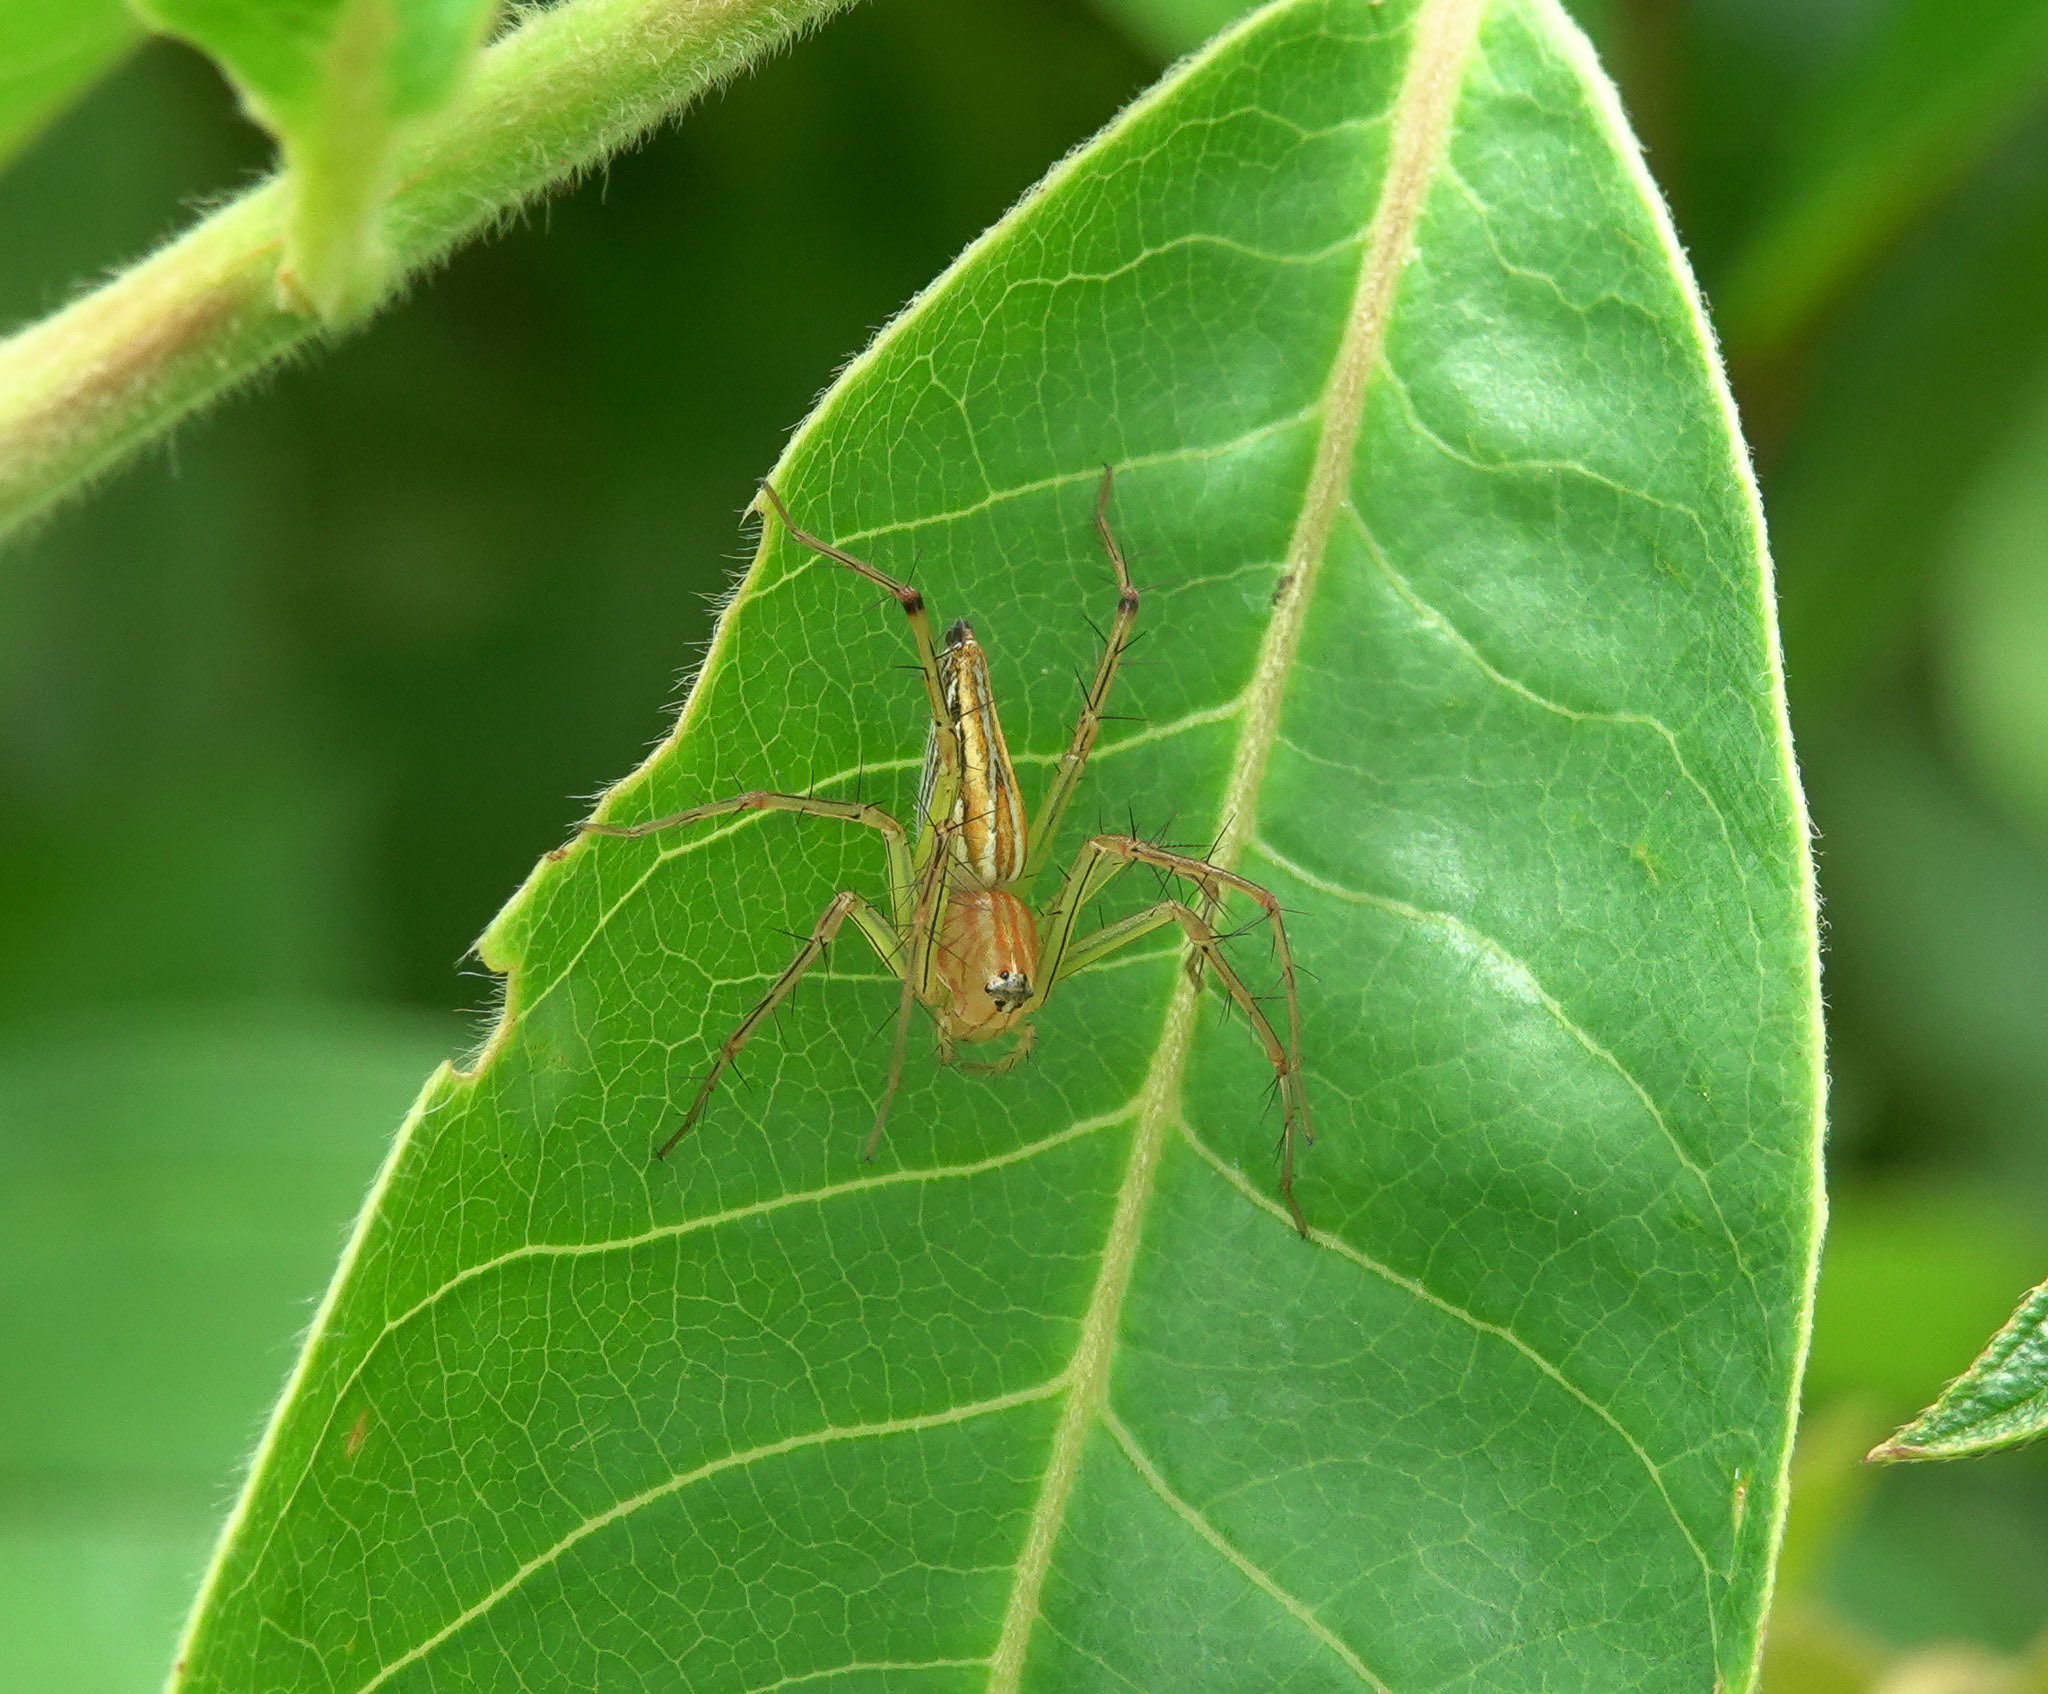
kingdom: Animalia
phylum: Arthropoda
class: Arachnida
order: Araneae
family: Oxyopidae
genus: Oxyopes
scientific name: Oxyopes macilentus
